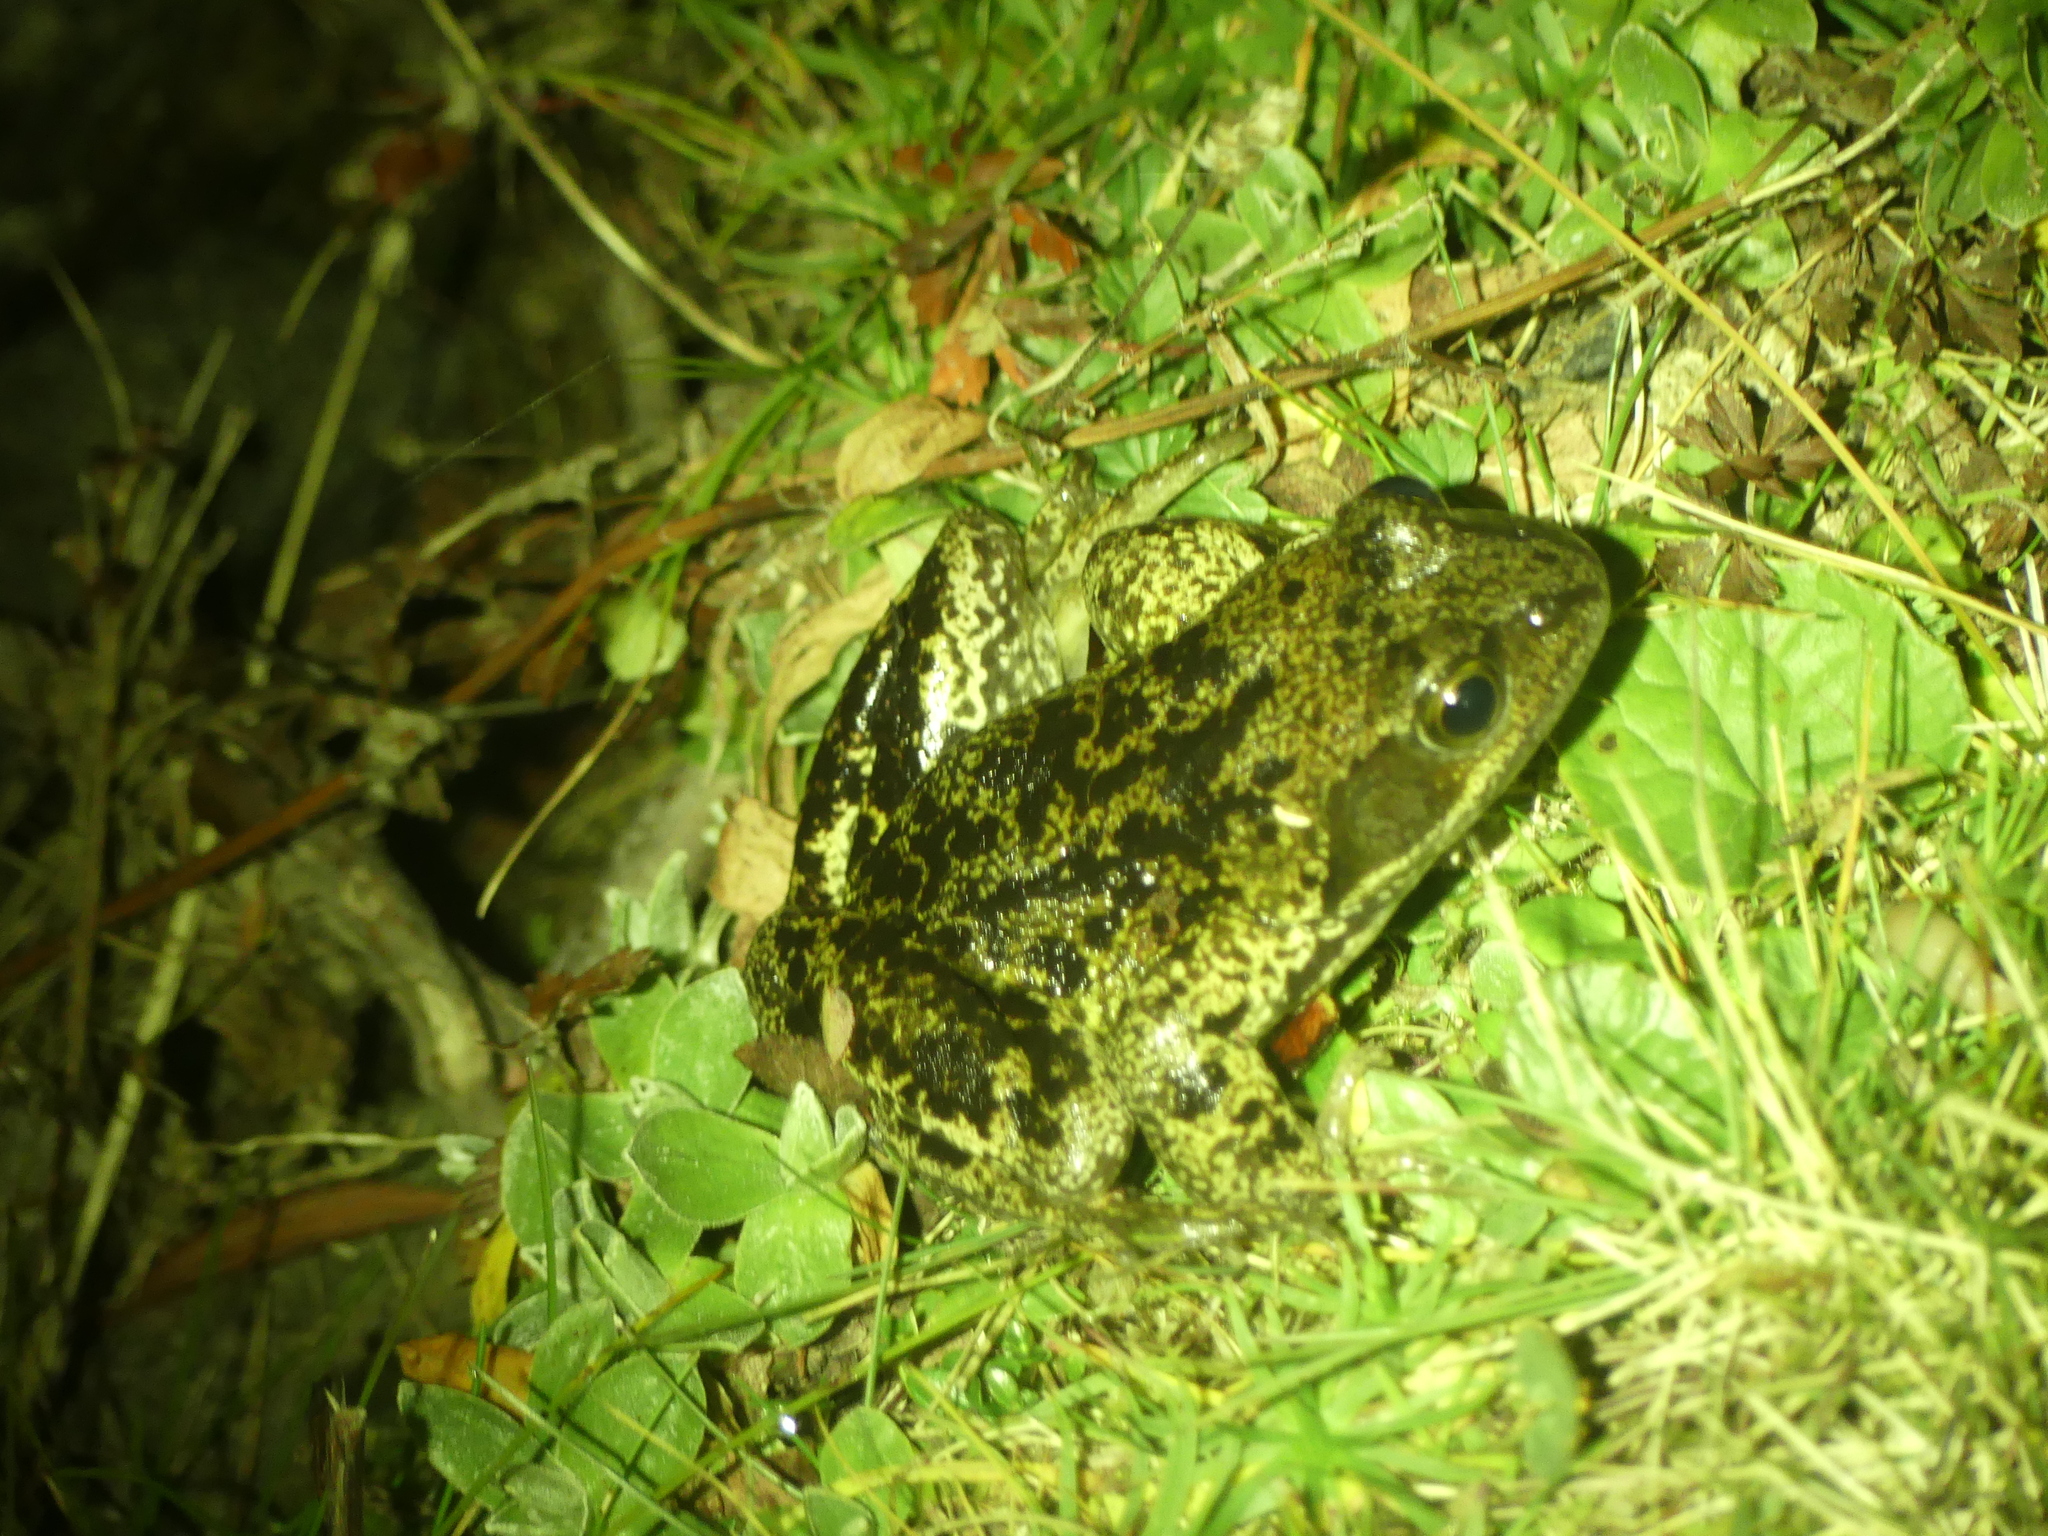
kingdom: Animalia
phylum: Chordata
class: Amphibia
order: Anura
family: Ranidae
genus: Rana
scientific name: Rana temporaria
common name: Common frog
